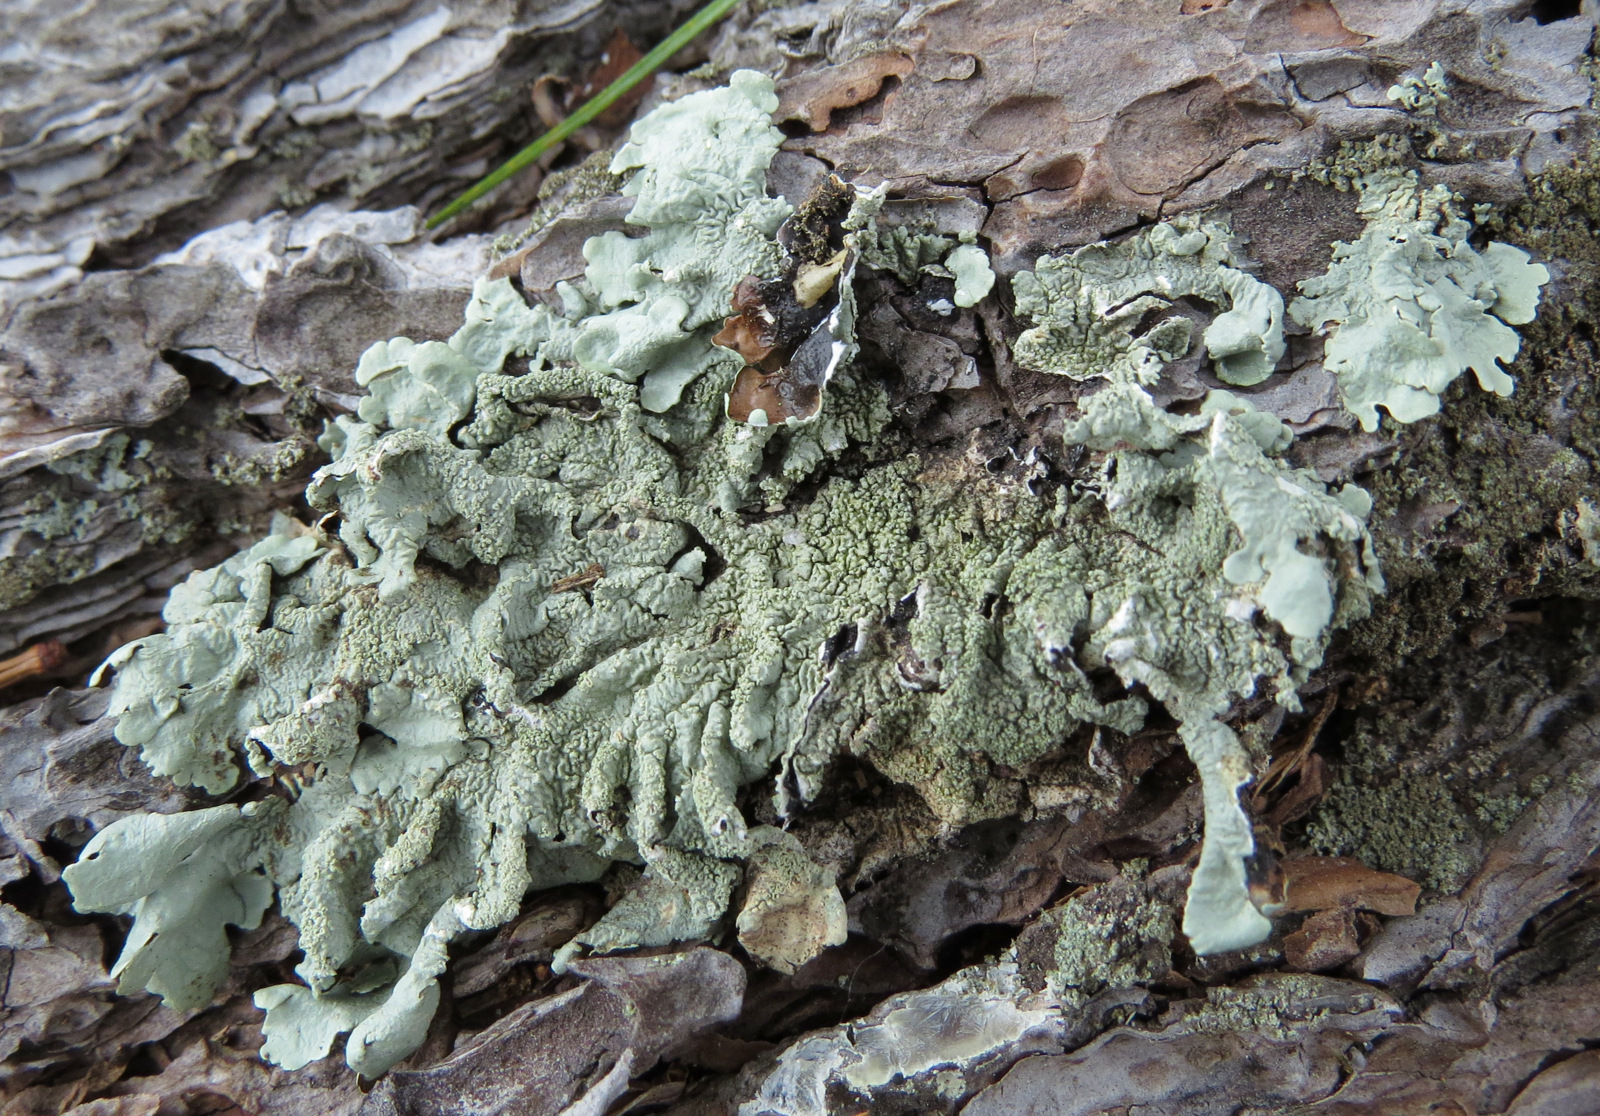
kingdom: Fungi
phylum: Ascomycota
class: Lecanoromycetes
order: Lecanorales
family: Parmeliaceae
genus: Flavoparmelia
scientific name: Flavoparmelia caperata
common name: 40-mile per hour lichen
